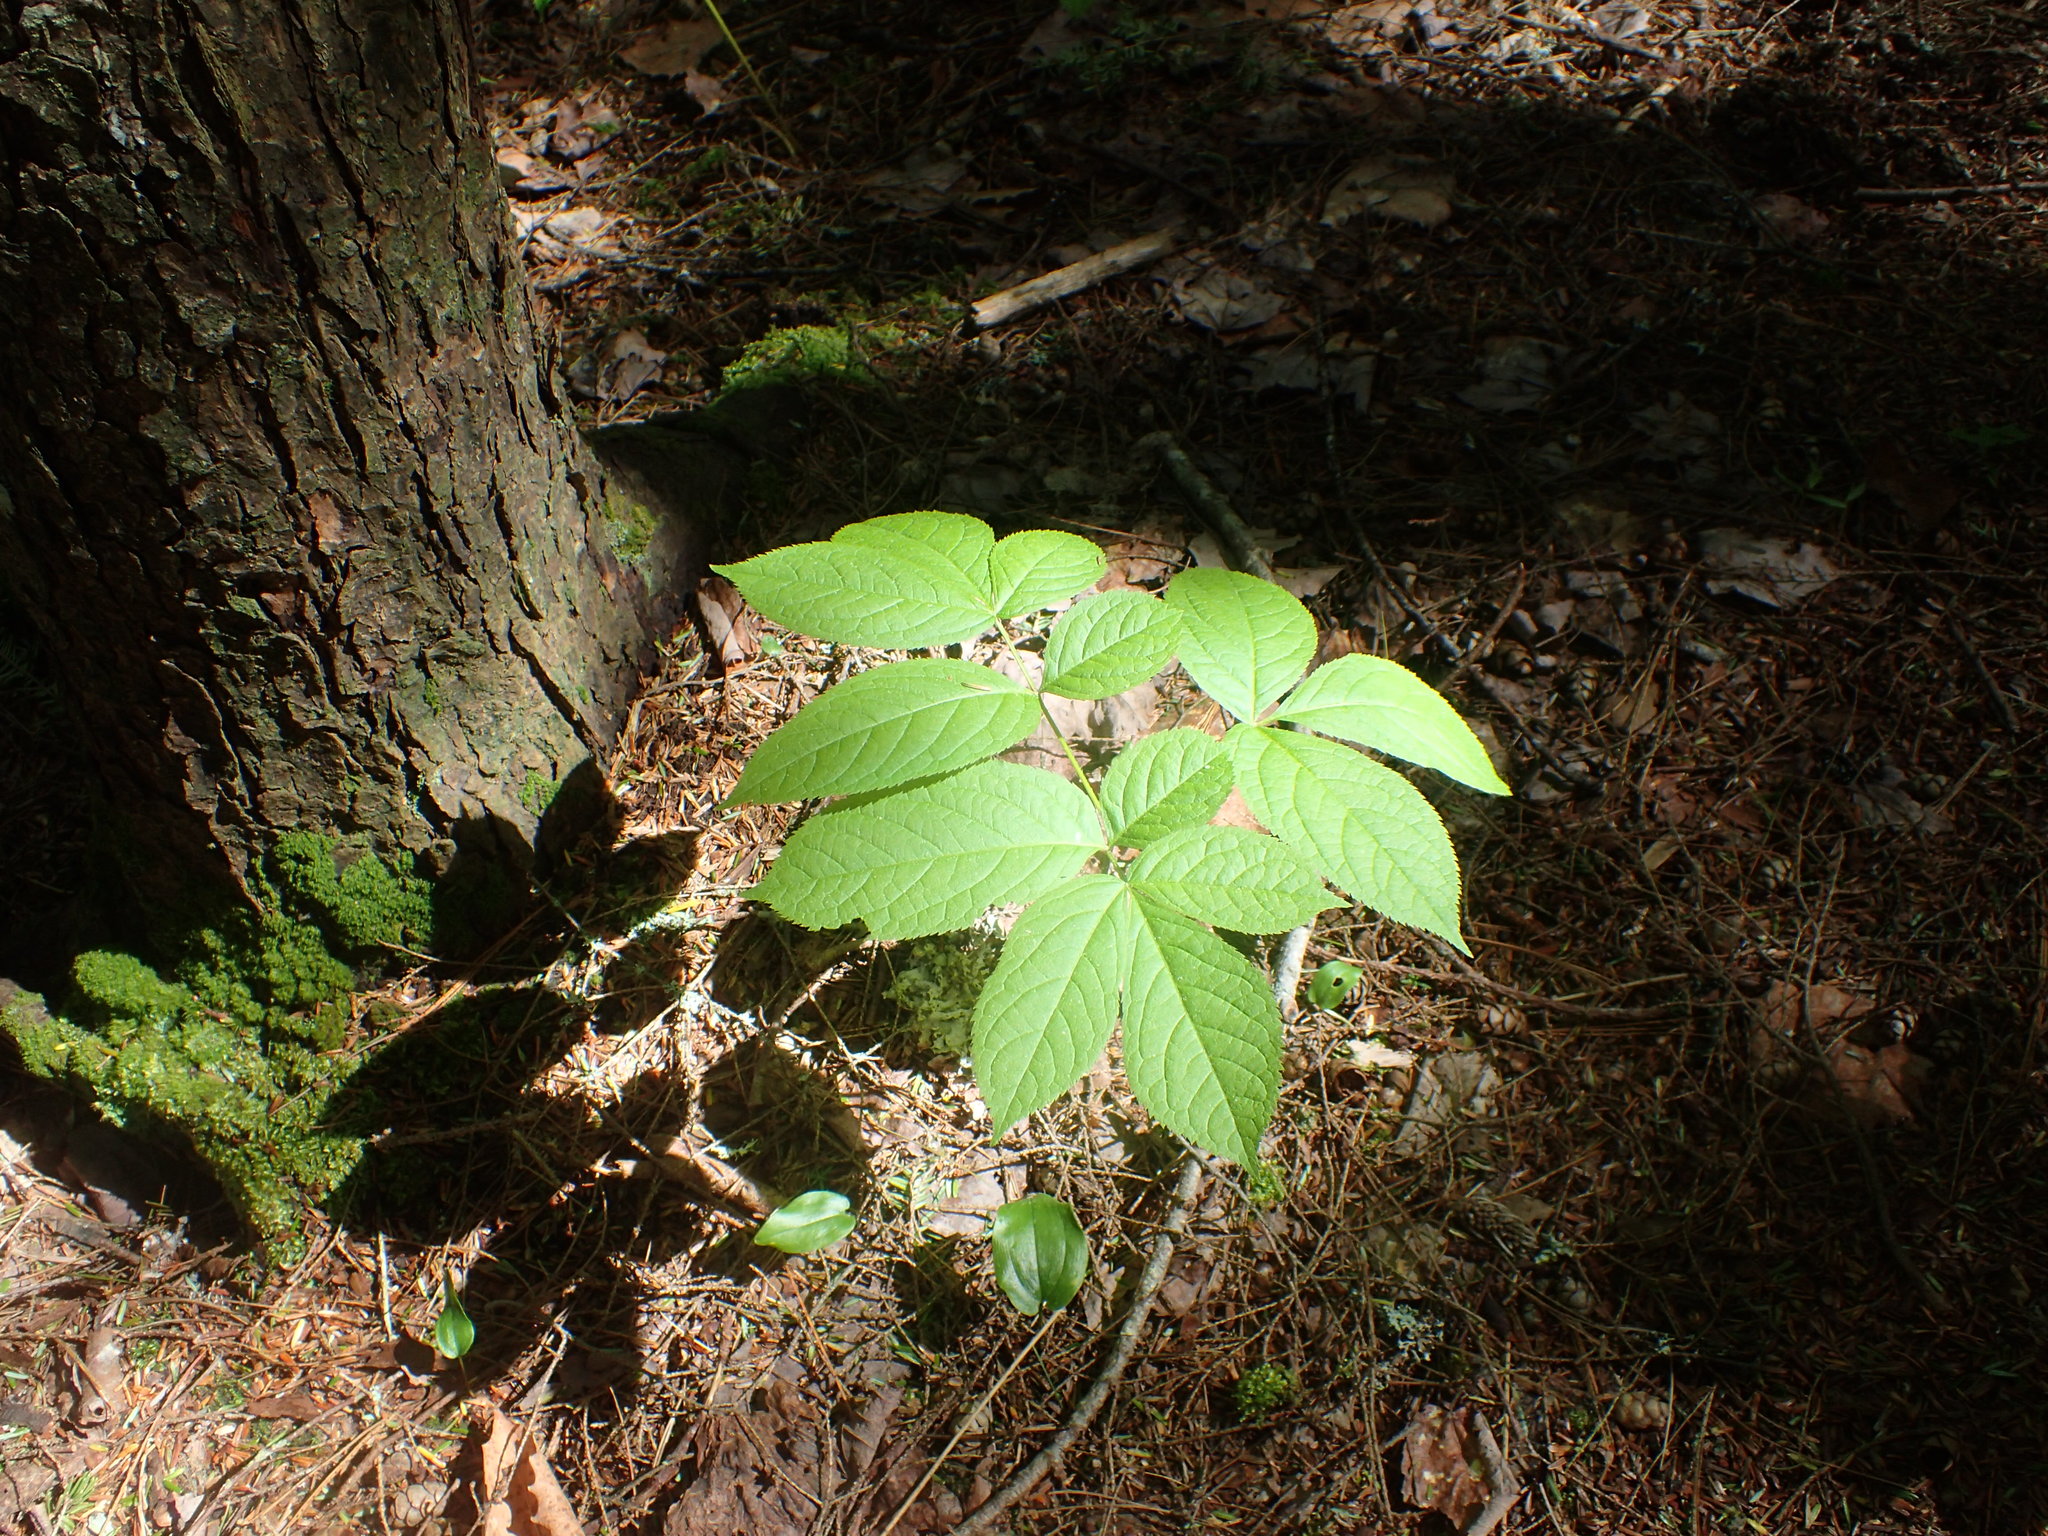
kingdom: Plantae
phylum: Tracheophyta
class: Magnoliopsida
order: Apiales
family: Araliaceae
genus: Aralia
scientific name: Aralia nudicaulis
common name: Wild sarsaparilla
